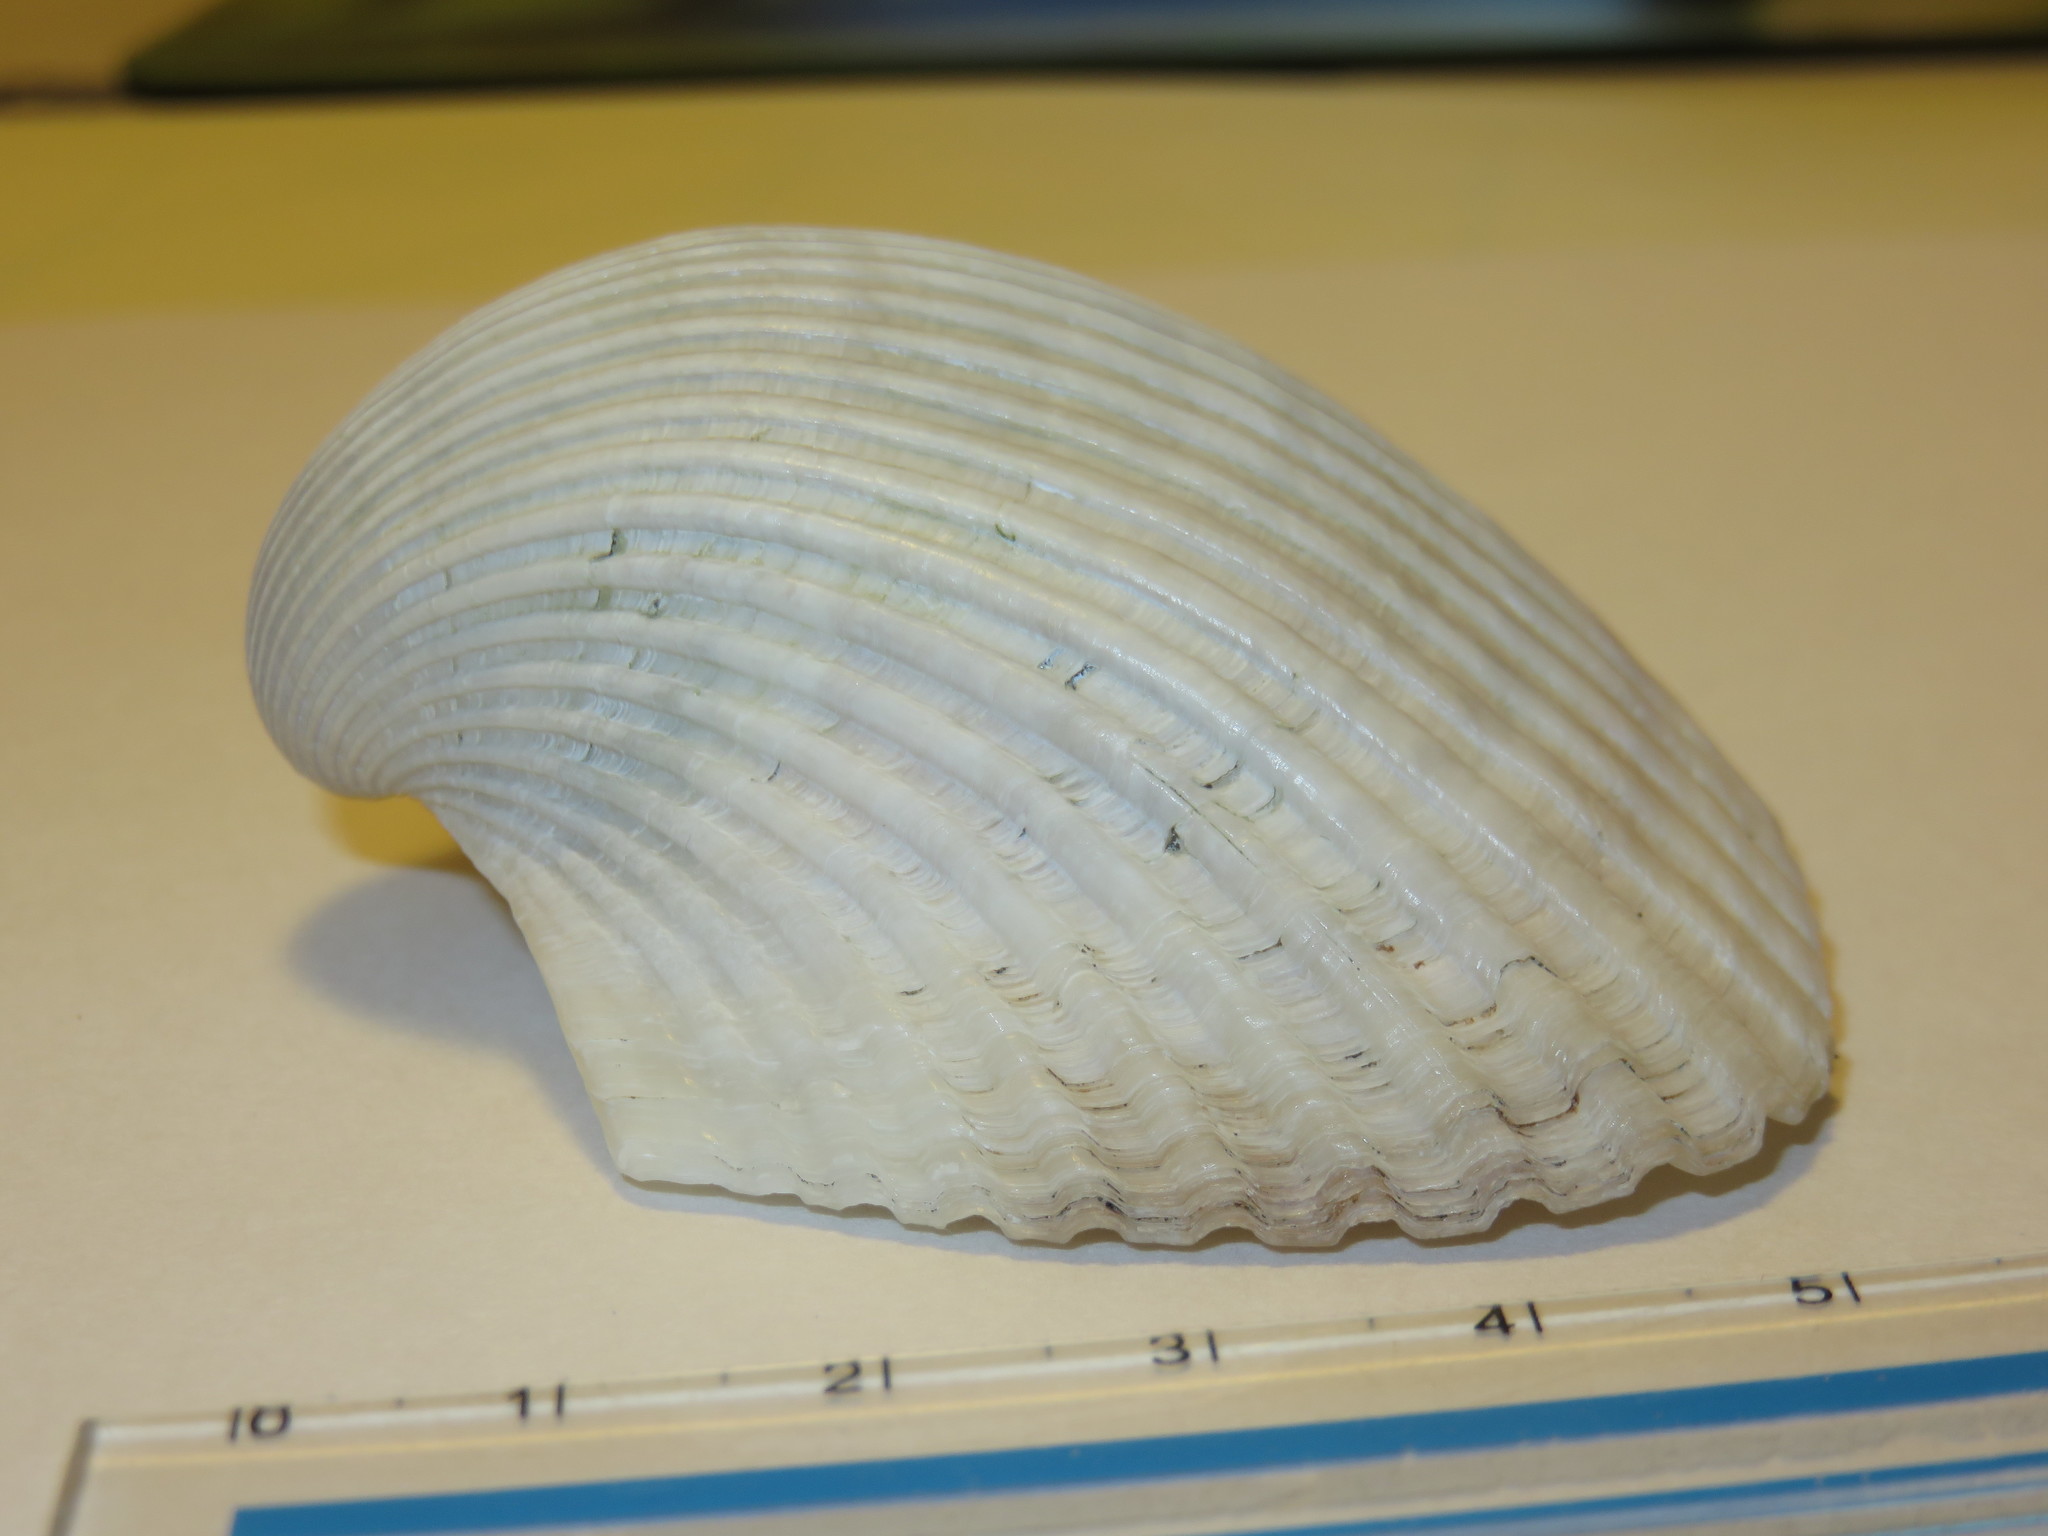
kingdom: Animalia
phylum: Mollusca
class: Bivalvia
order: Arcida
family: Arcidae
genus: Anadara
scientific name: Anadara satowi
